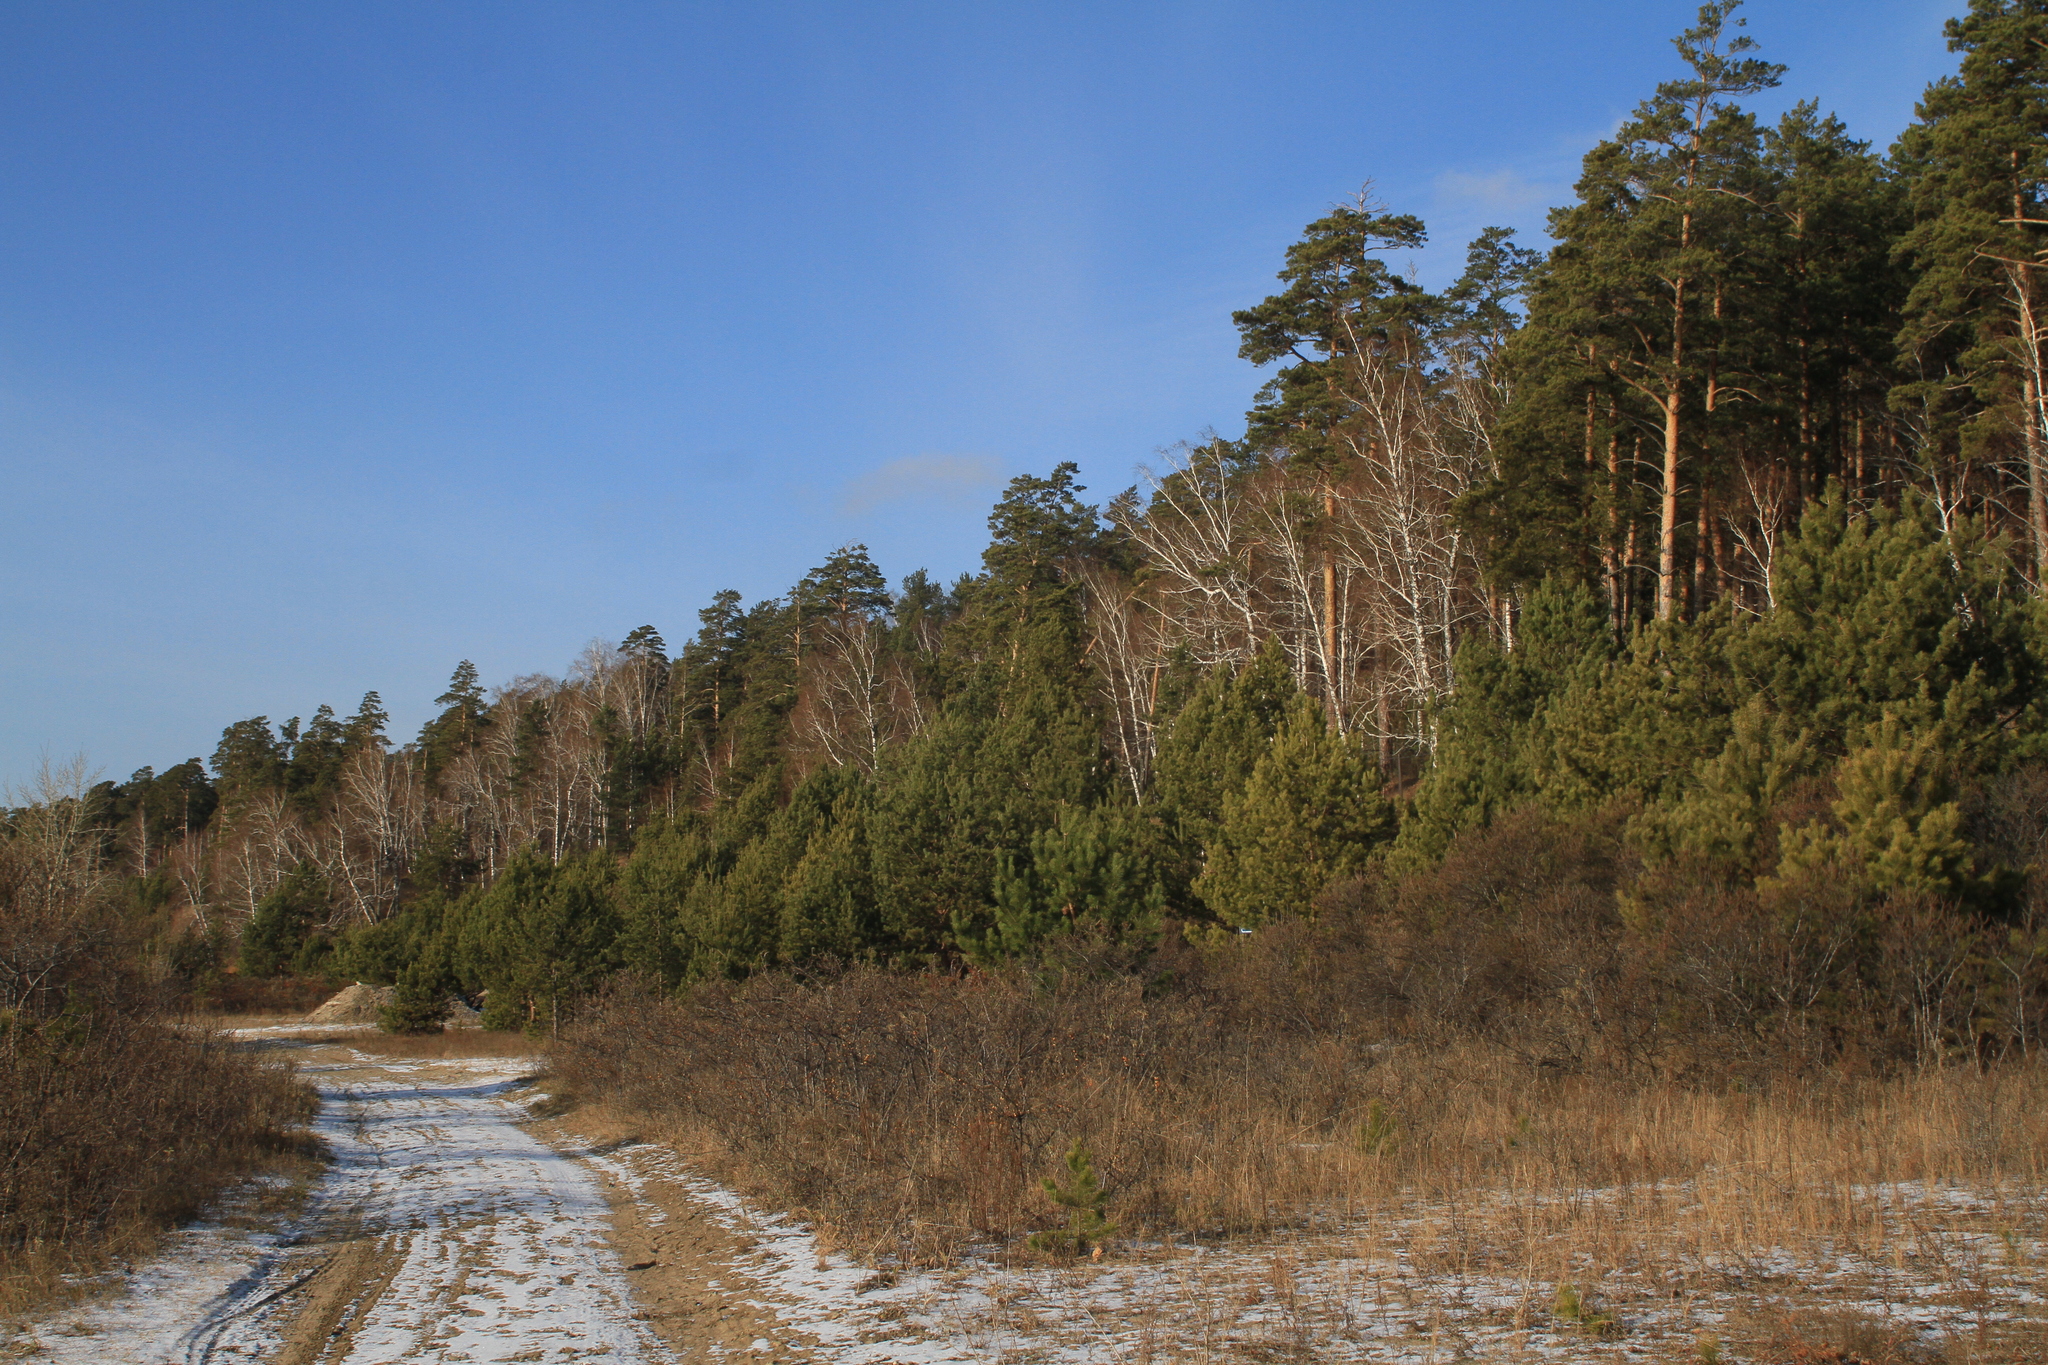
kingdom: Plantae
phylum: Tracheophyta
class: Magnoliopsida
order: Fagales
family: Betulaceae
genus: Betula
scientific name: Betula pendula
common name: Silver birch
